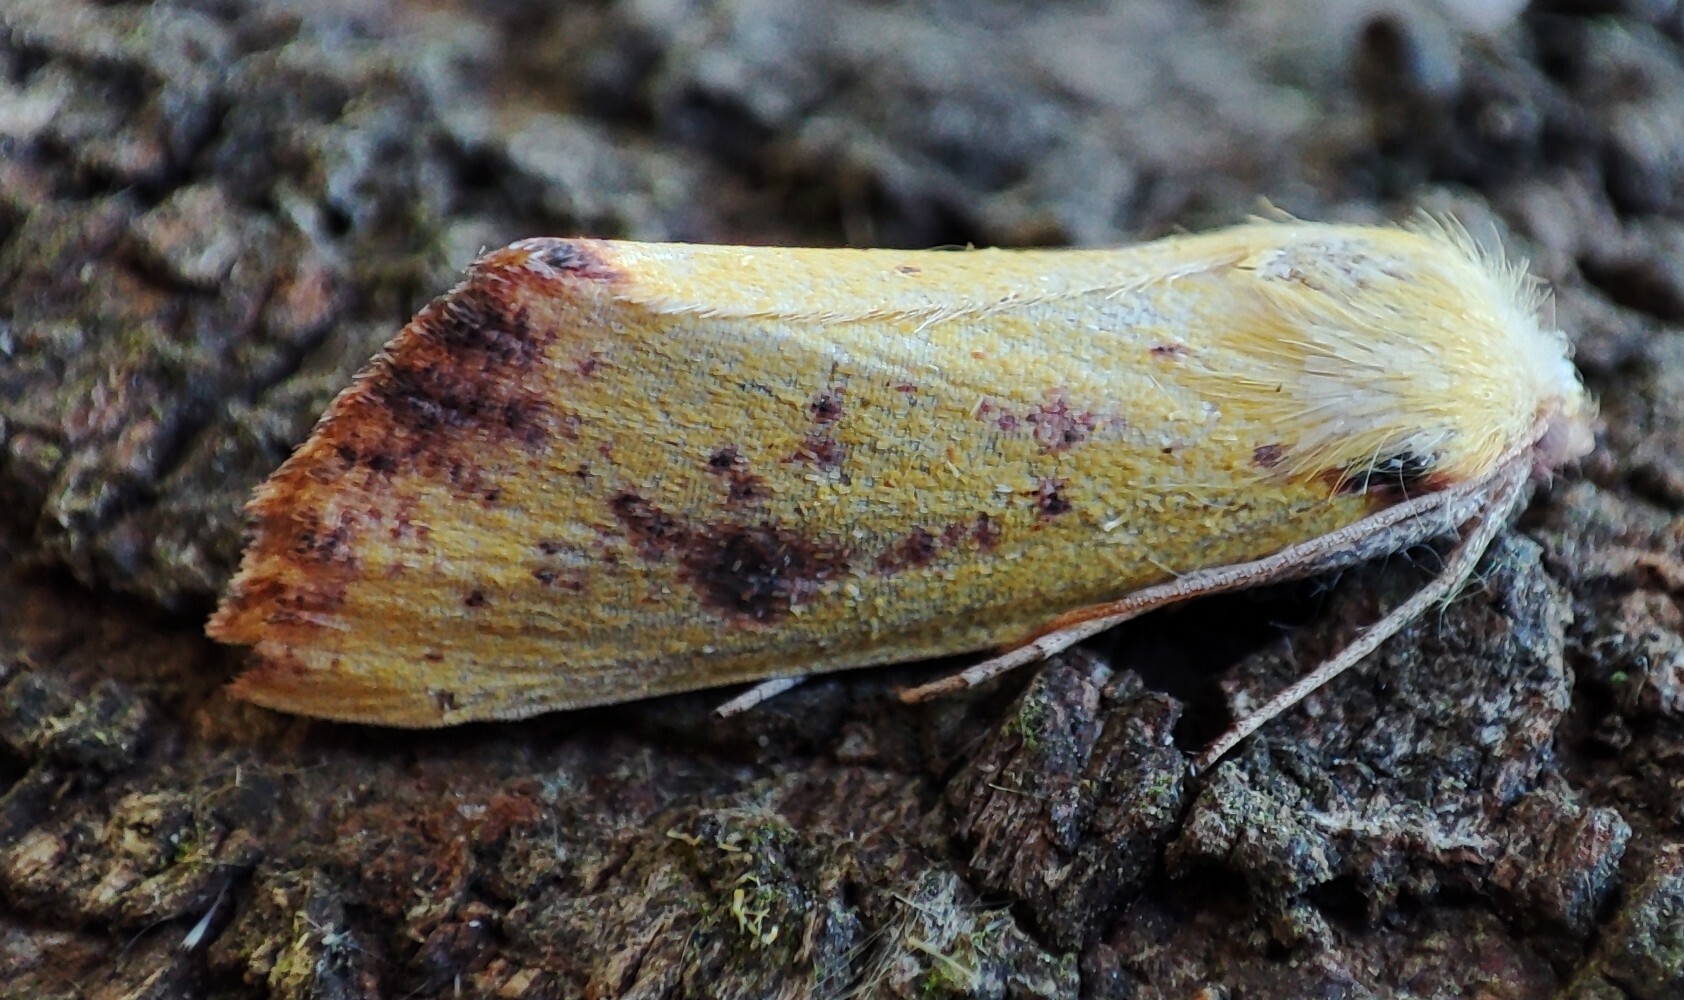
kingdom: Animalia
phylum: Arthropoda
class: Insecta
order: Lepidoptera
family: Geometridae
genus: Acrasia
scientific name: Acrasia crinita
